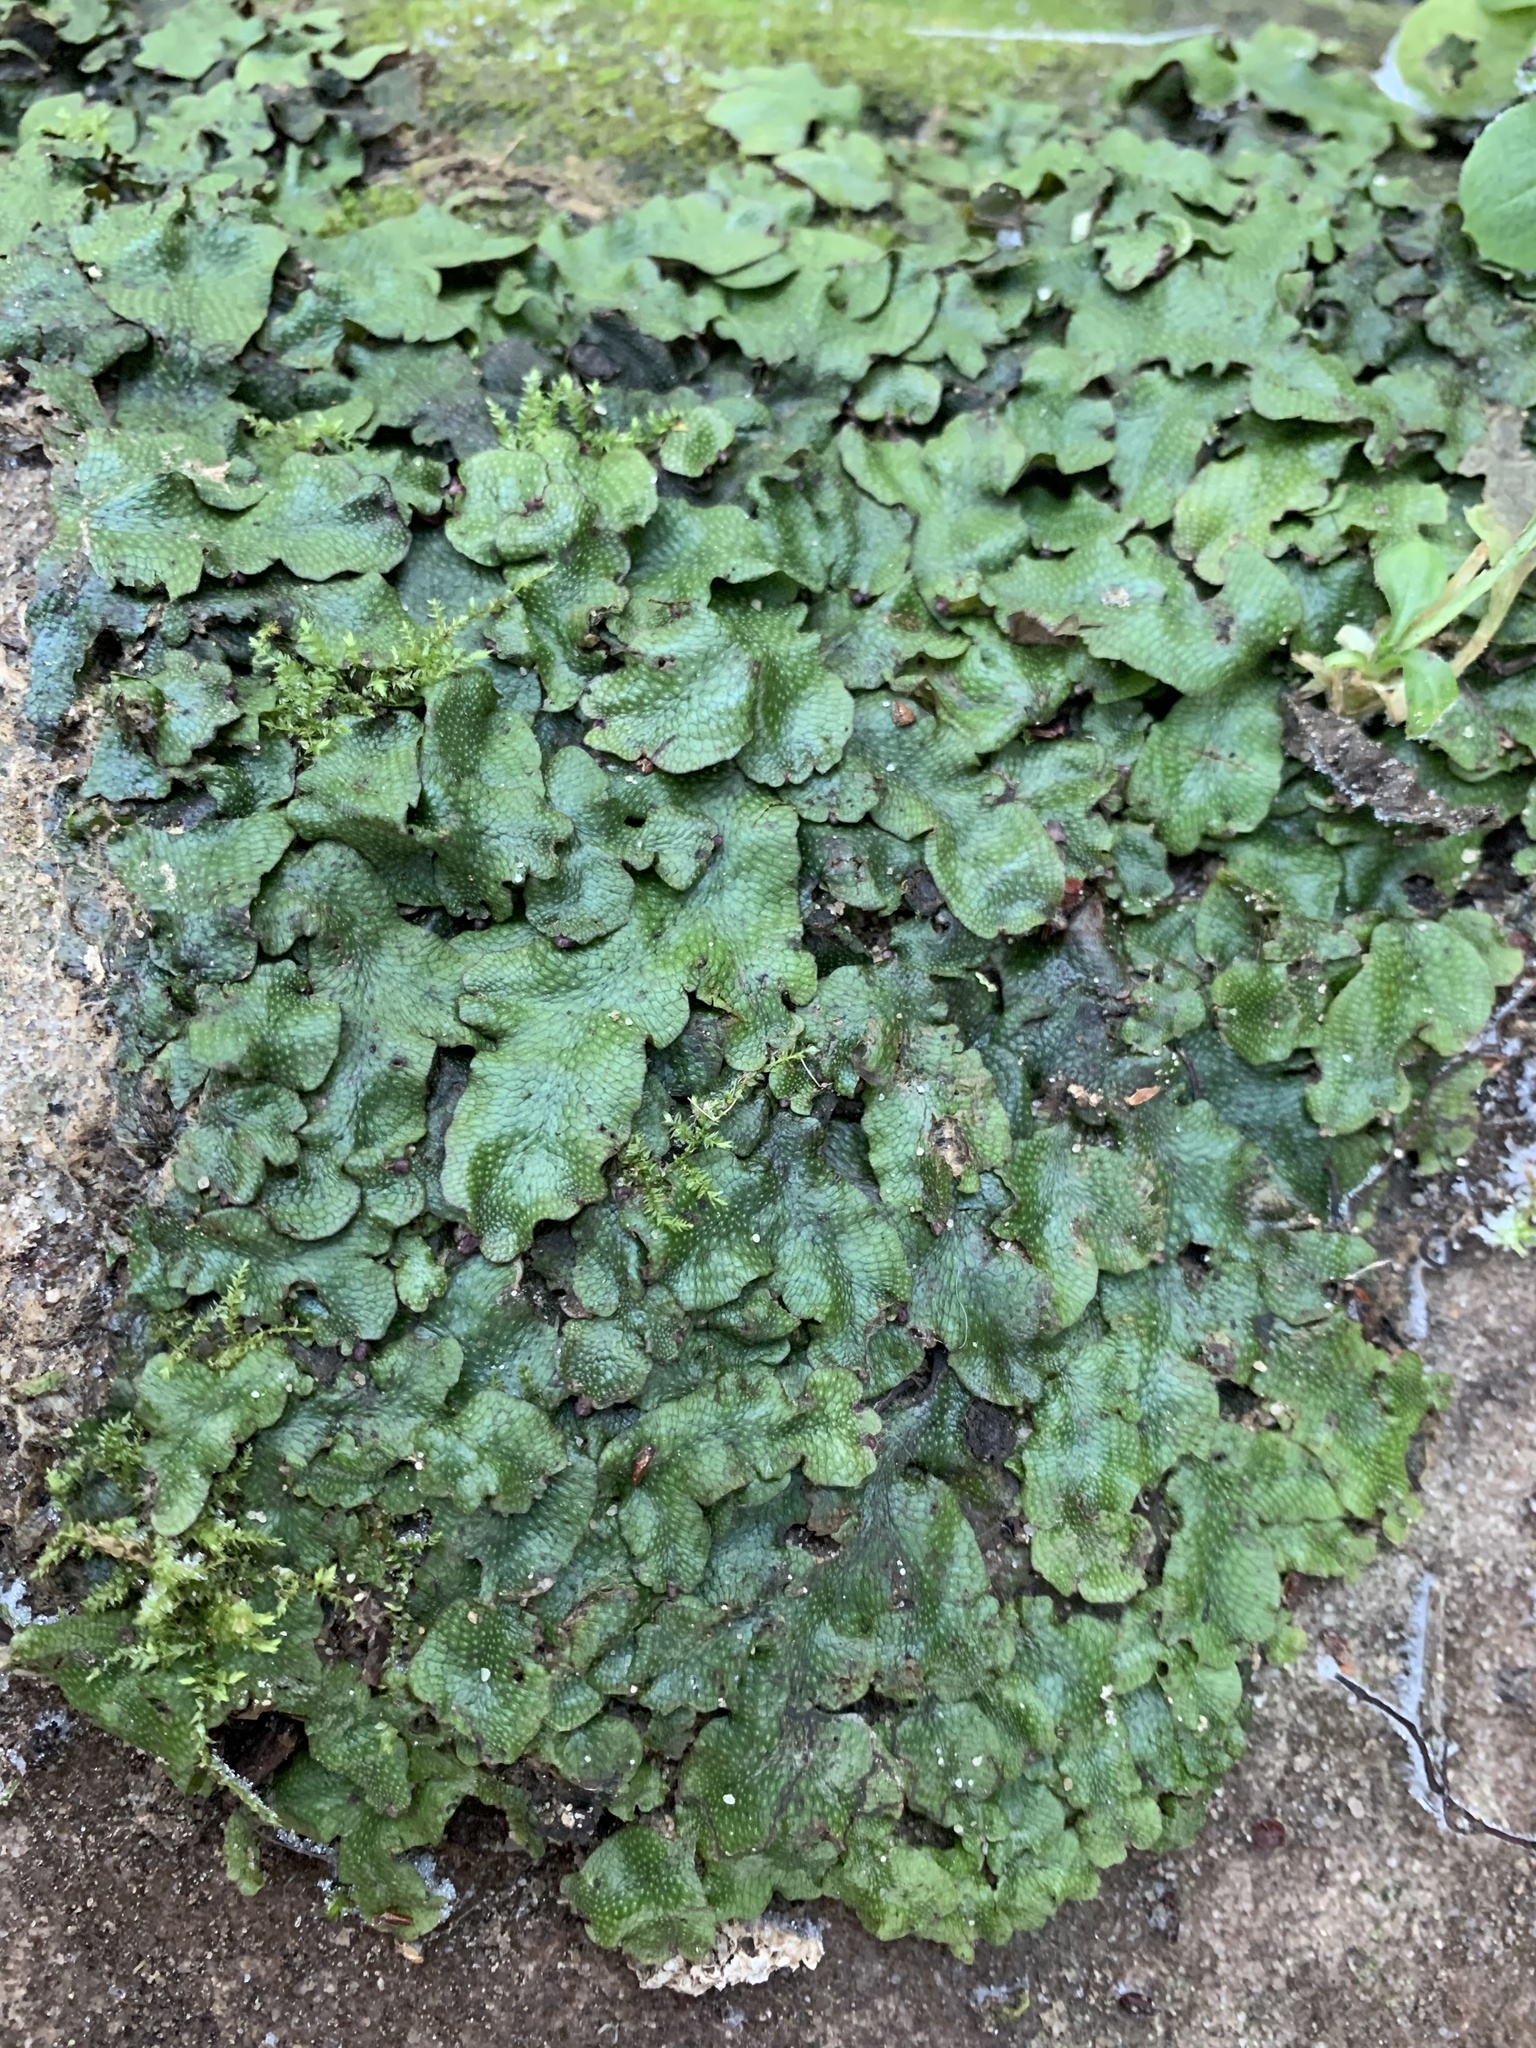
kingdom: Plantae
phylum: Marchantiophyta
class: Marchantiopsida
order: Marchantiales
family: Conocephalaceae
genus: Conocephalum
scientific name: Conocephalum conicum
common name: Great scented liverwort
